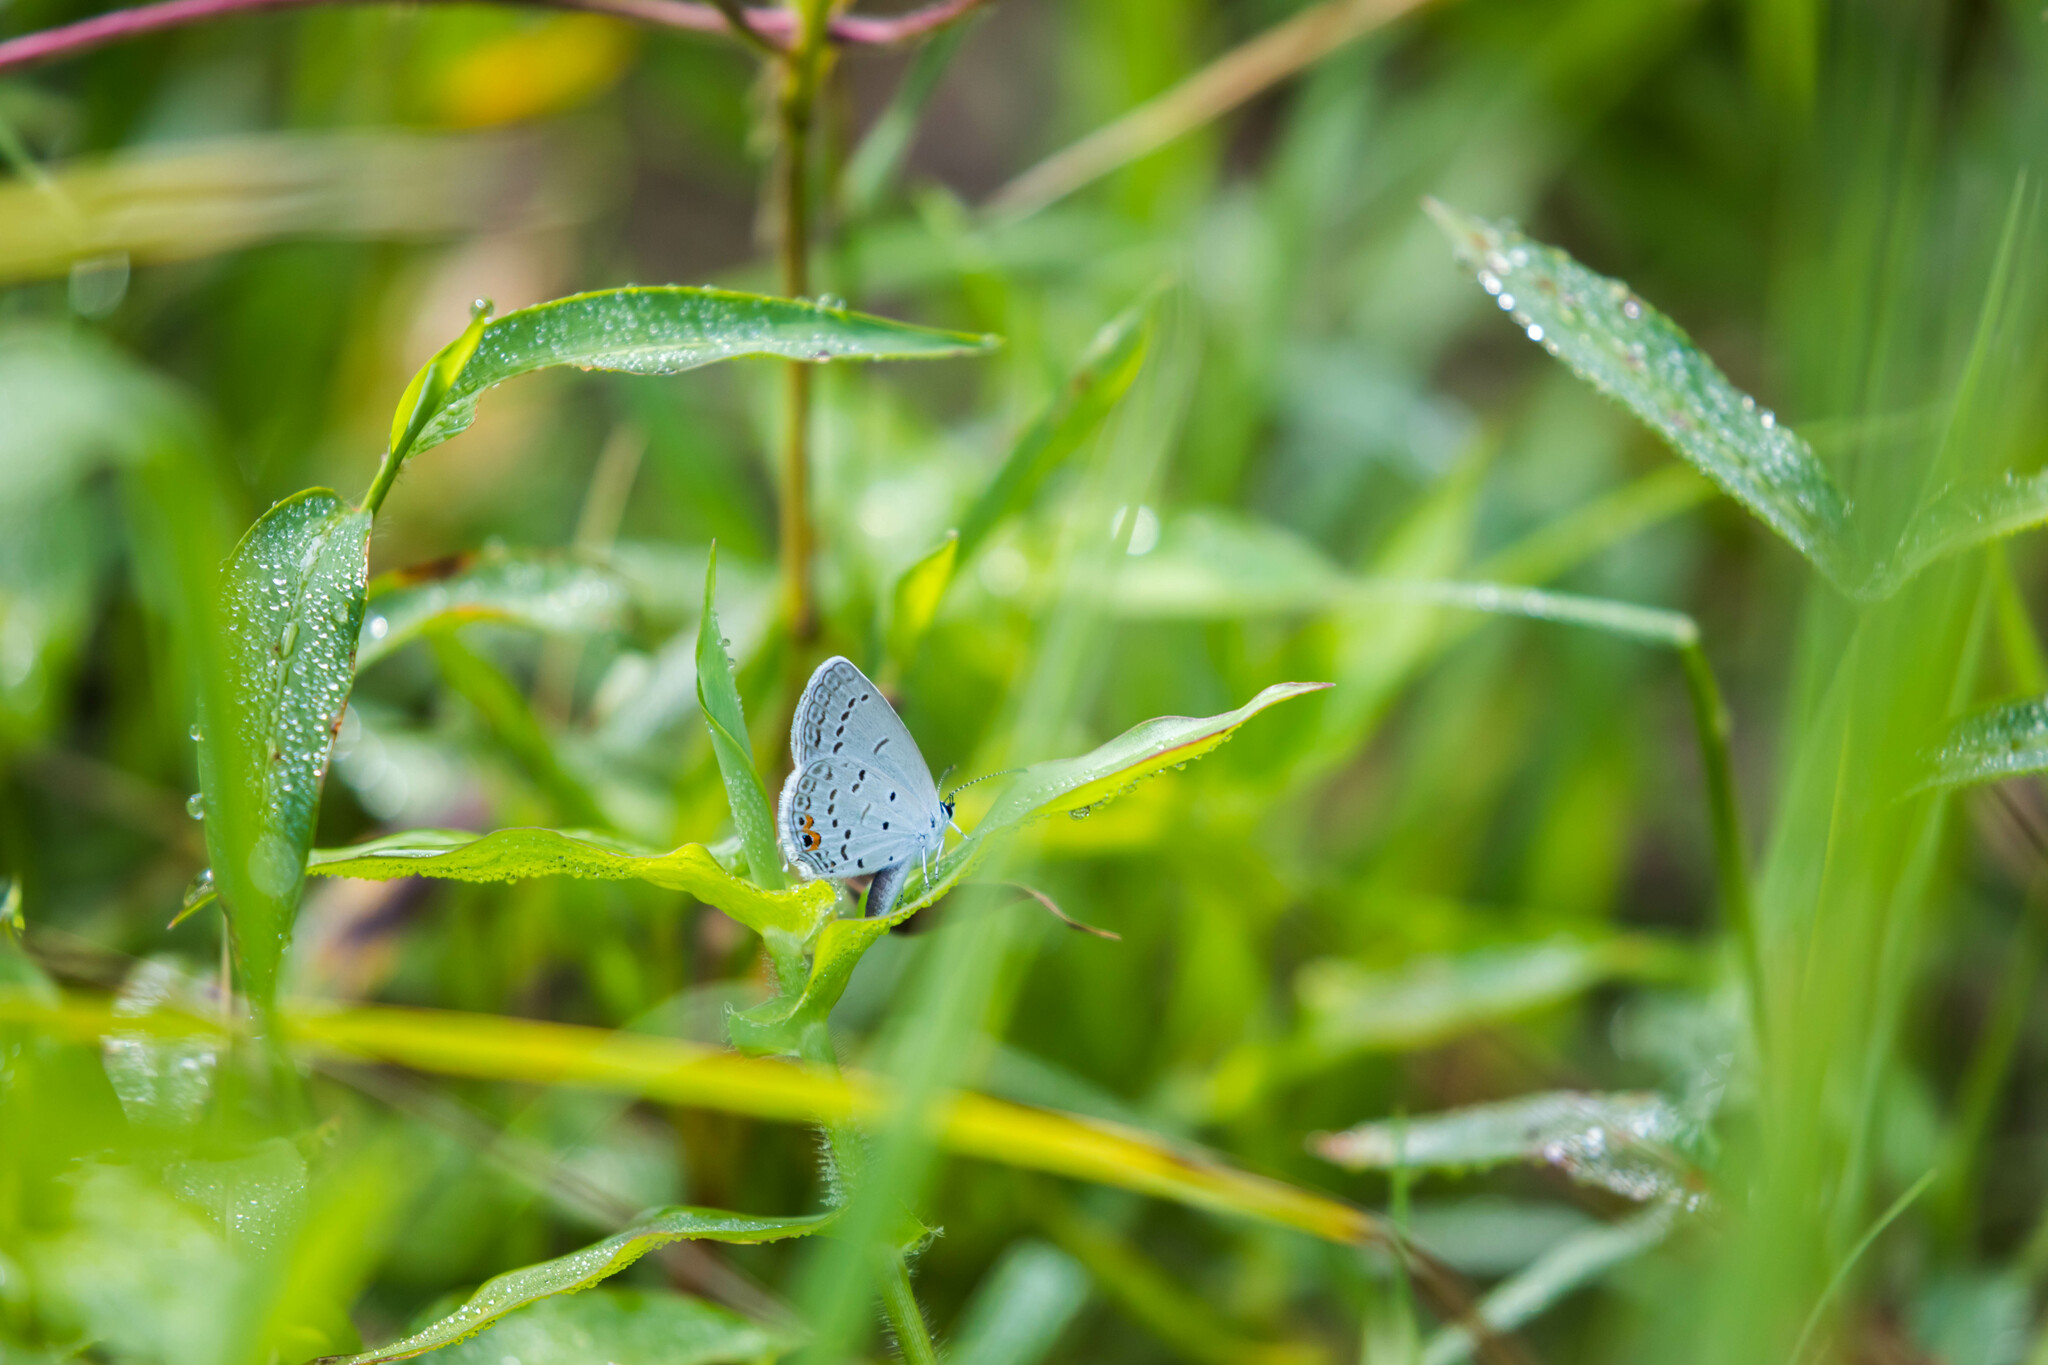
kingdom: Animalia
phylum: Arthropoda
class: Insecta
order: Lepidoptera
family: Lycaenidae
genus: Elkalyce
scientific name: Elkalyce comyntas
